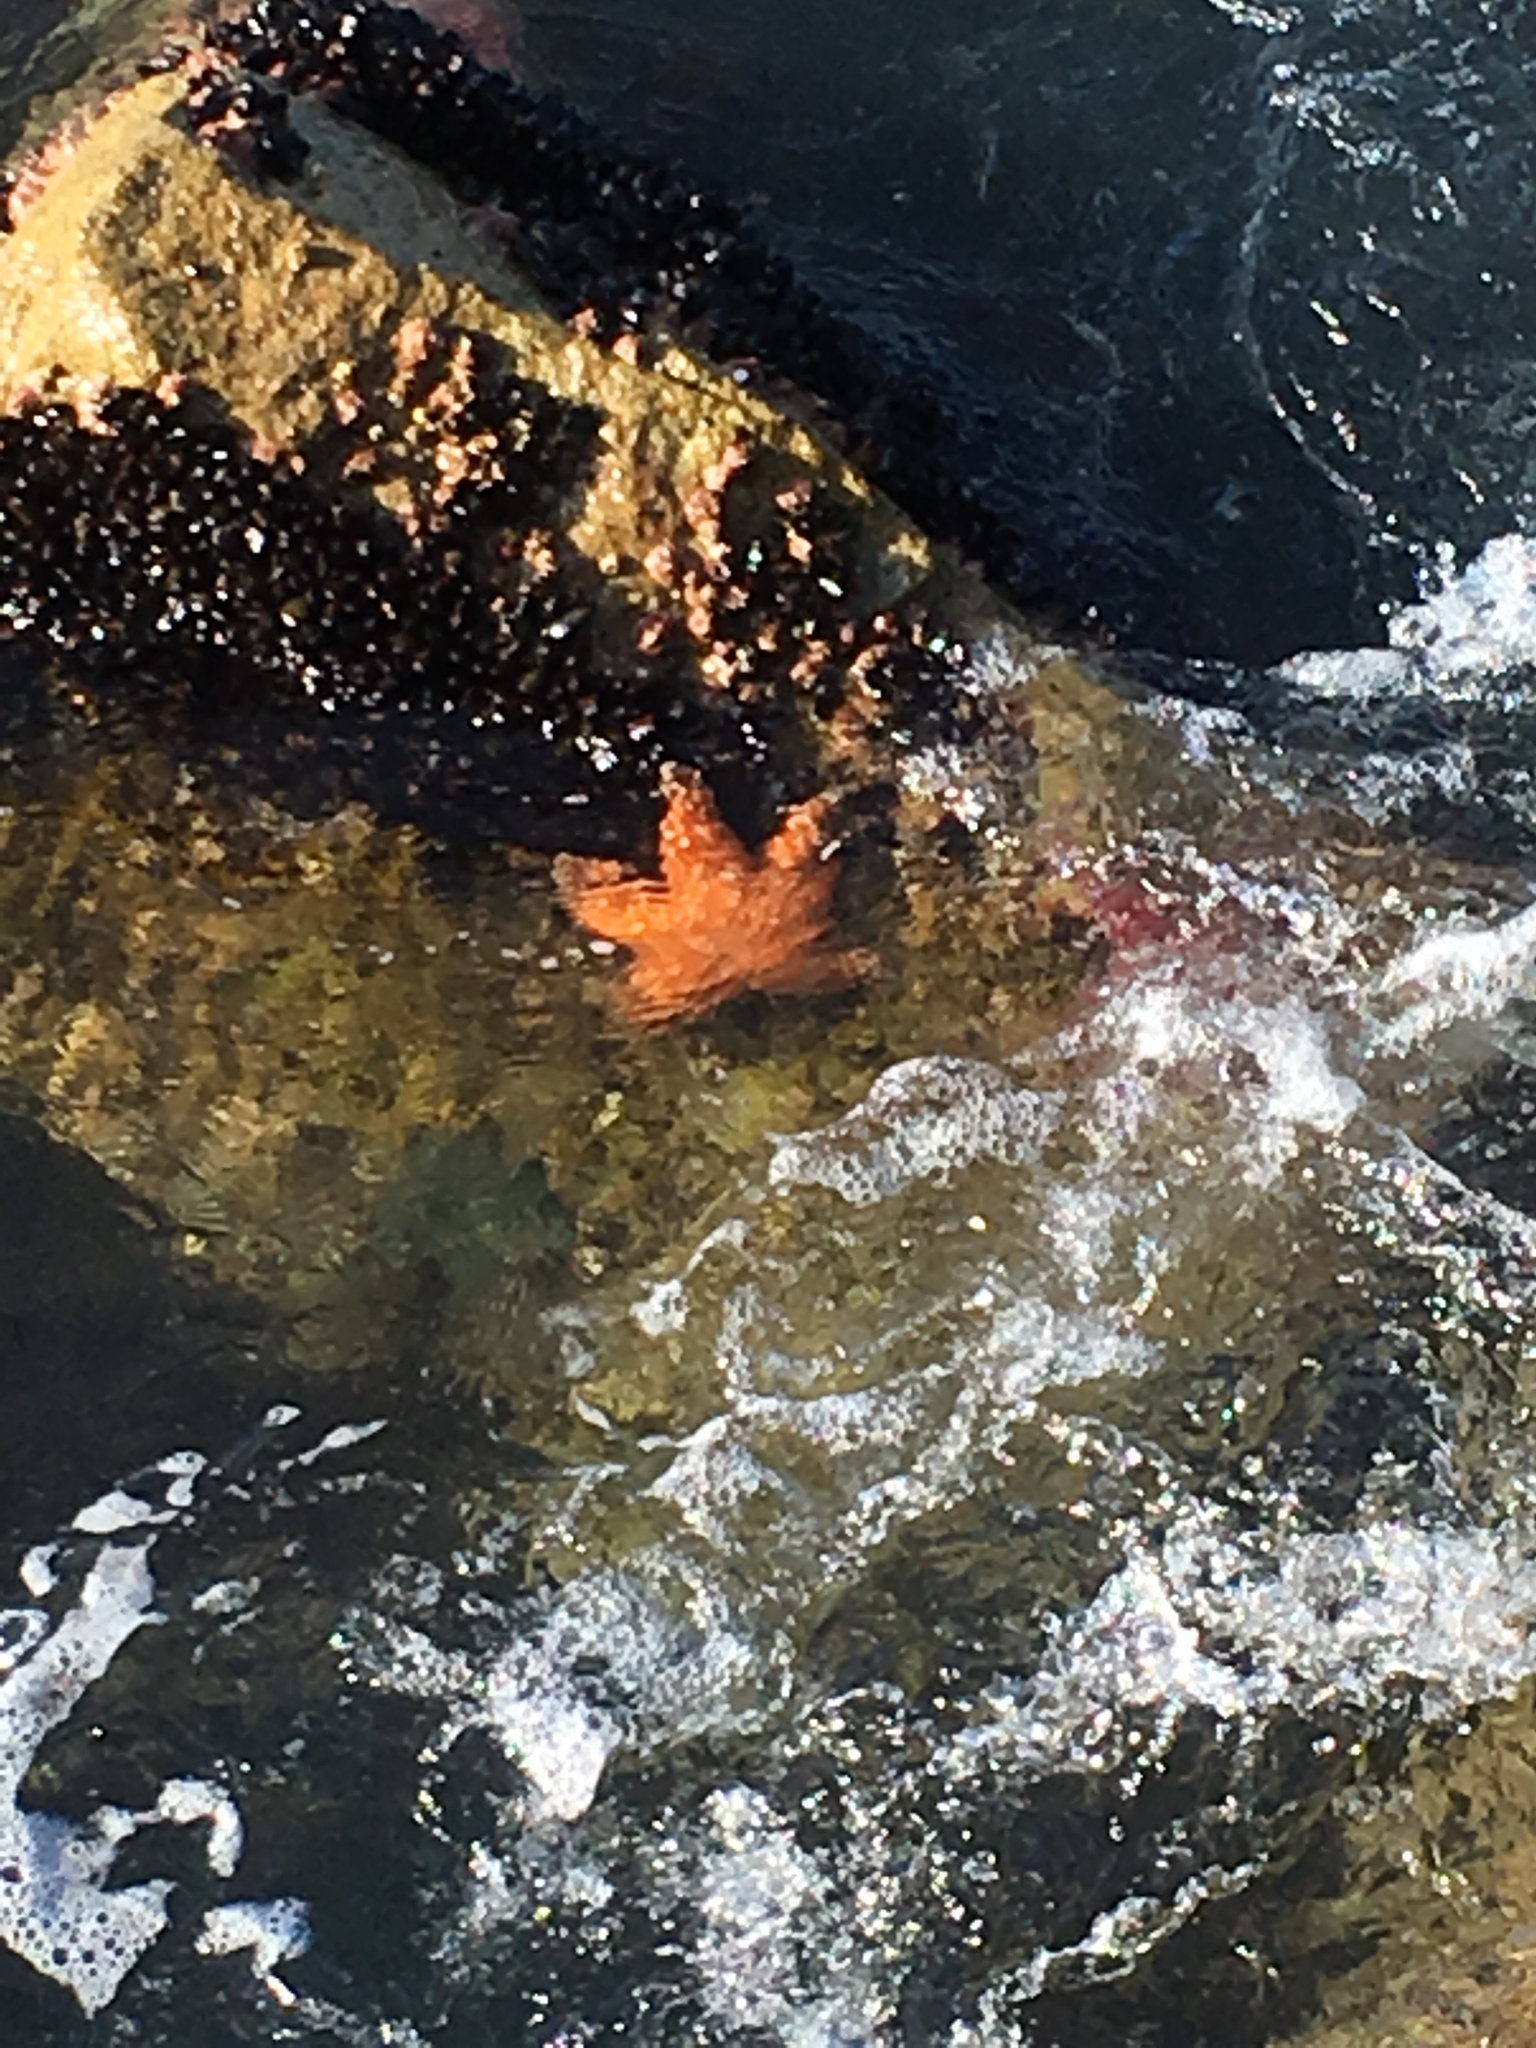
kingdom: Animalia
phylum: Echinodermata
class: Asteroidea
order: Forcipulatida
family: Asteriidae
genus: Pisaster
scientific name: Pisaster ochraceus
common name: Ochre stars
